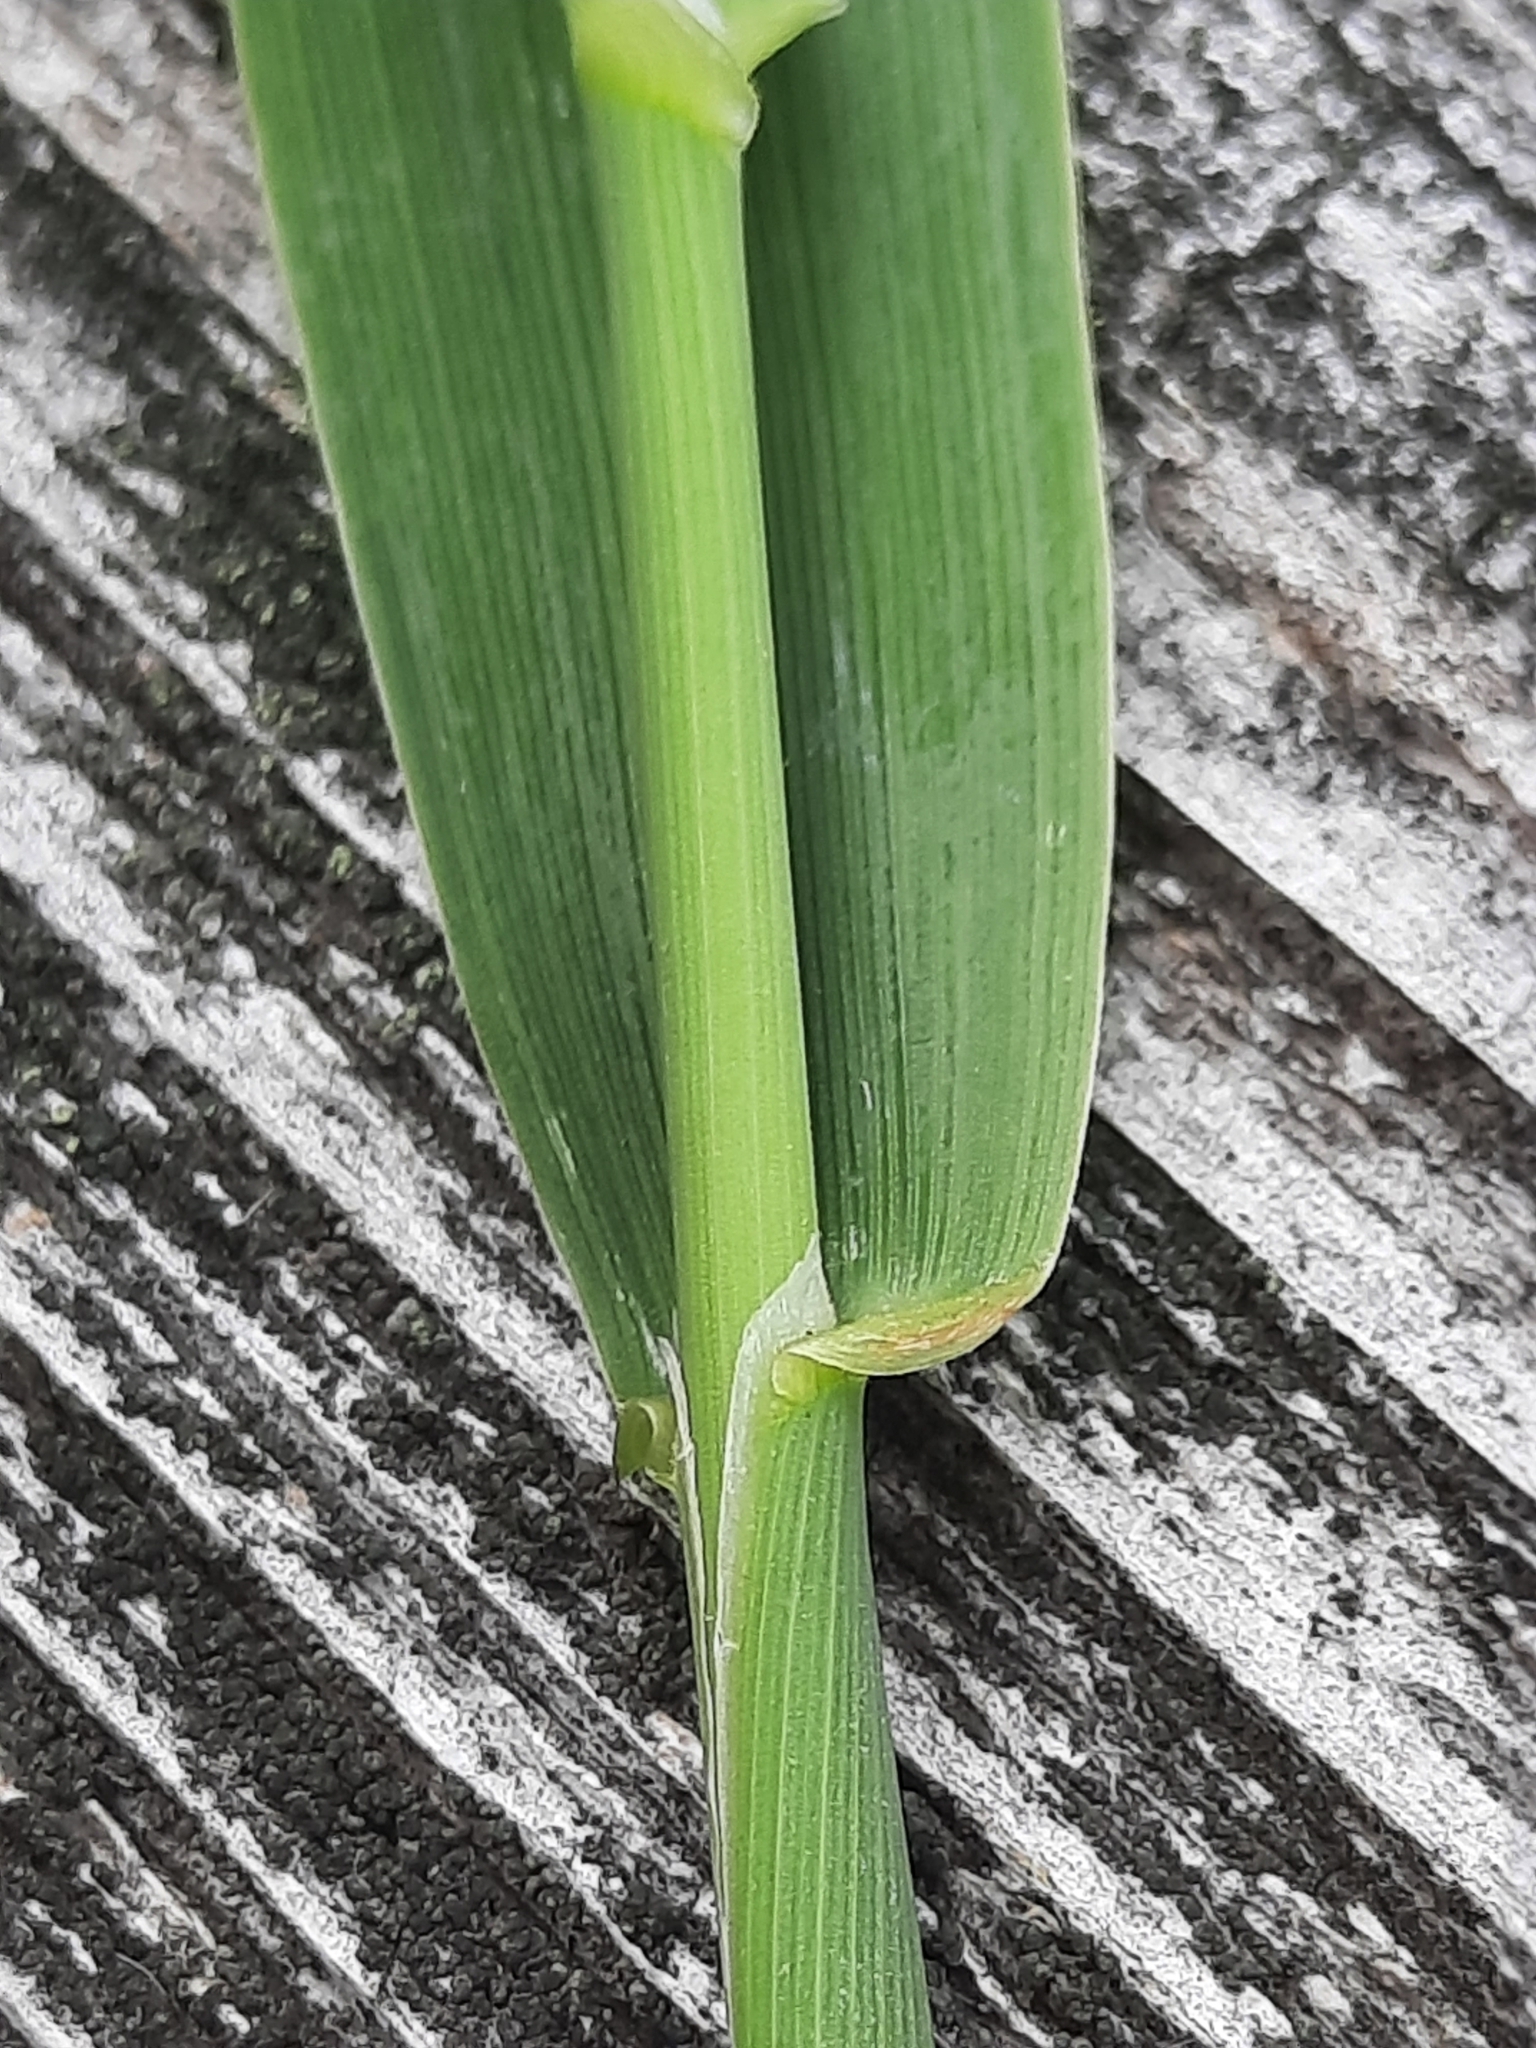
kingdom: Plantae
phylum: Tracheophyta
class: Liliopsida
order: Poales
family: Poaceae
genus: Phalaris
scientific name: Phalaris arundinacea
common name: Reed canary-grass
